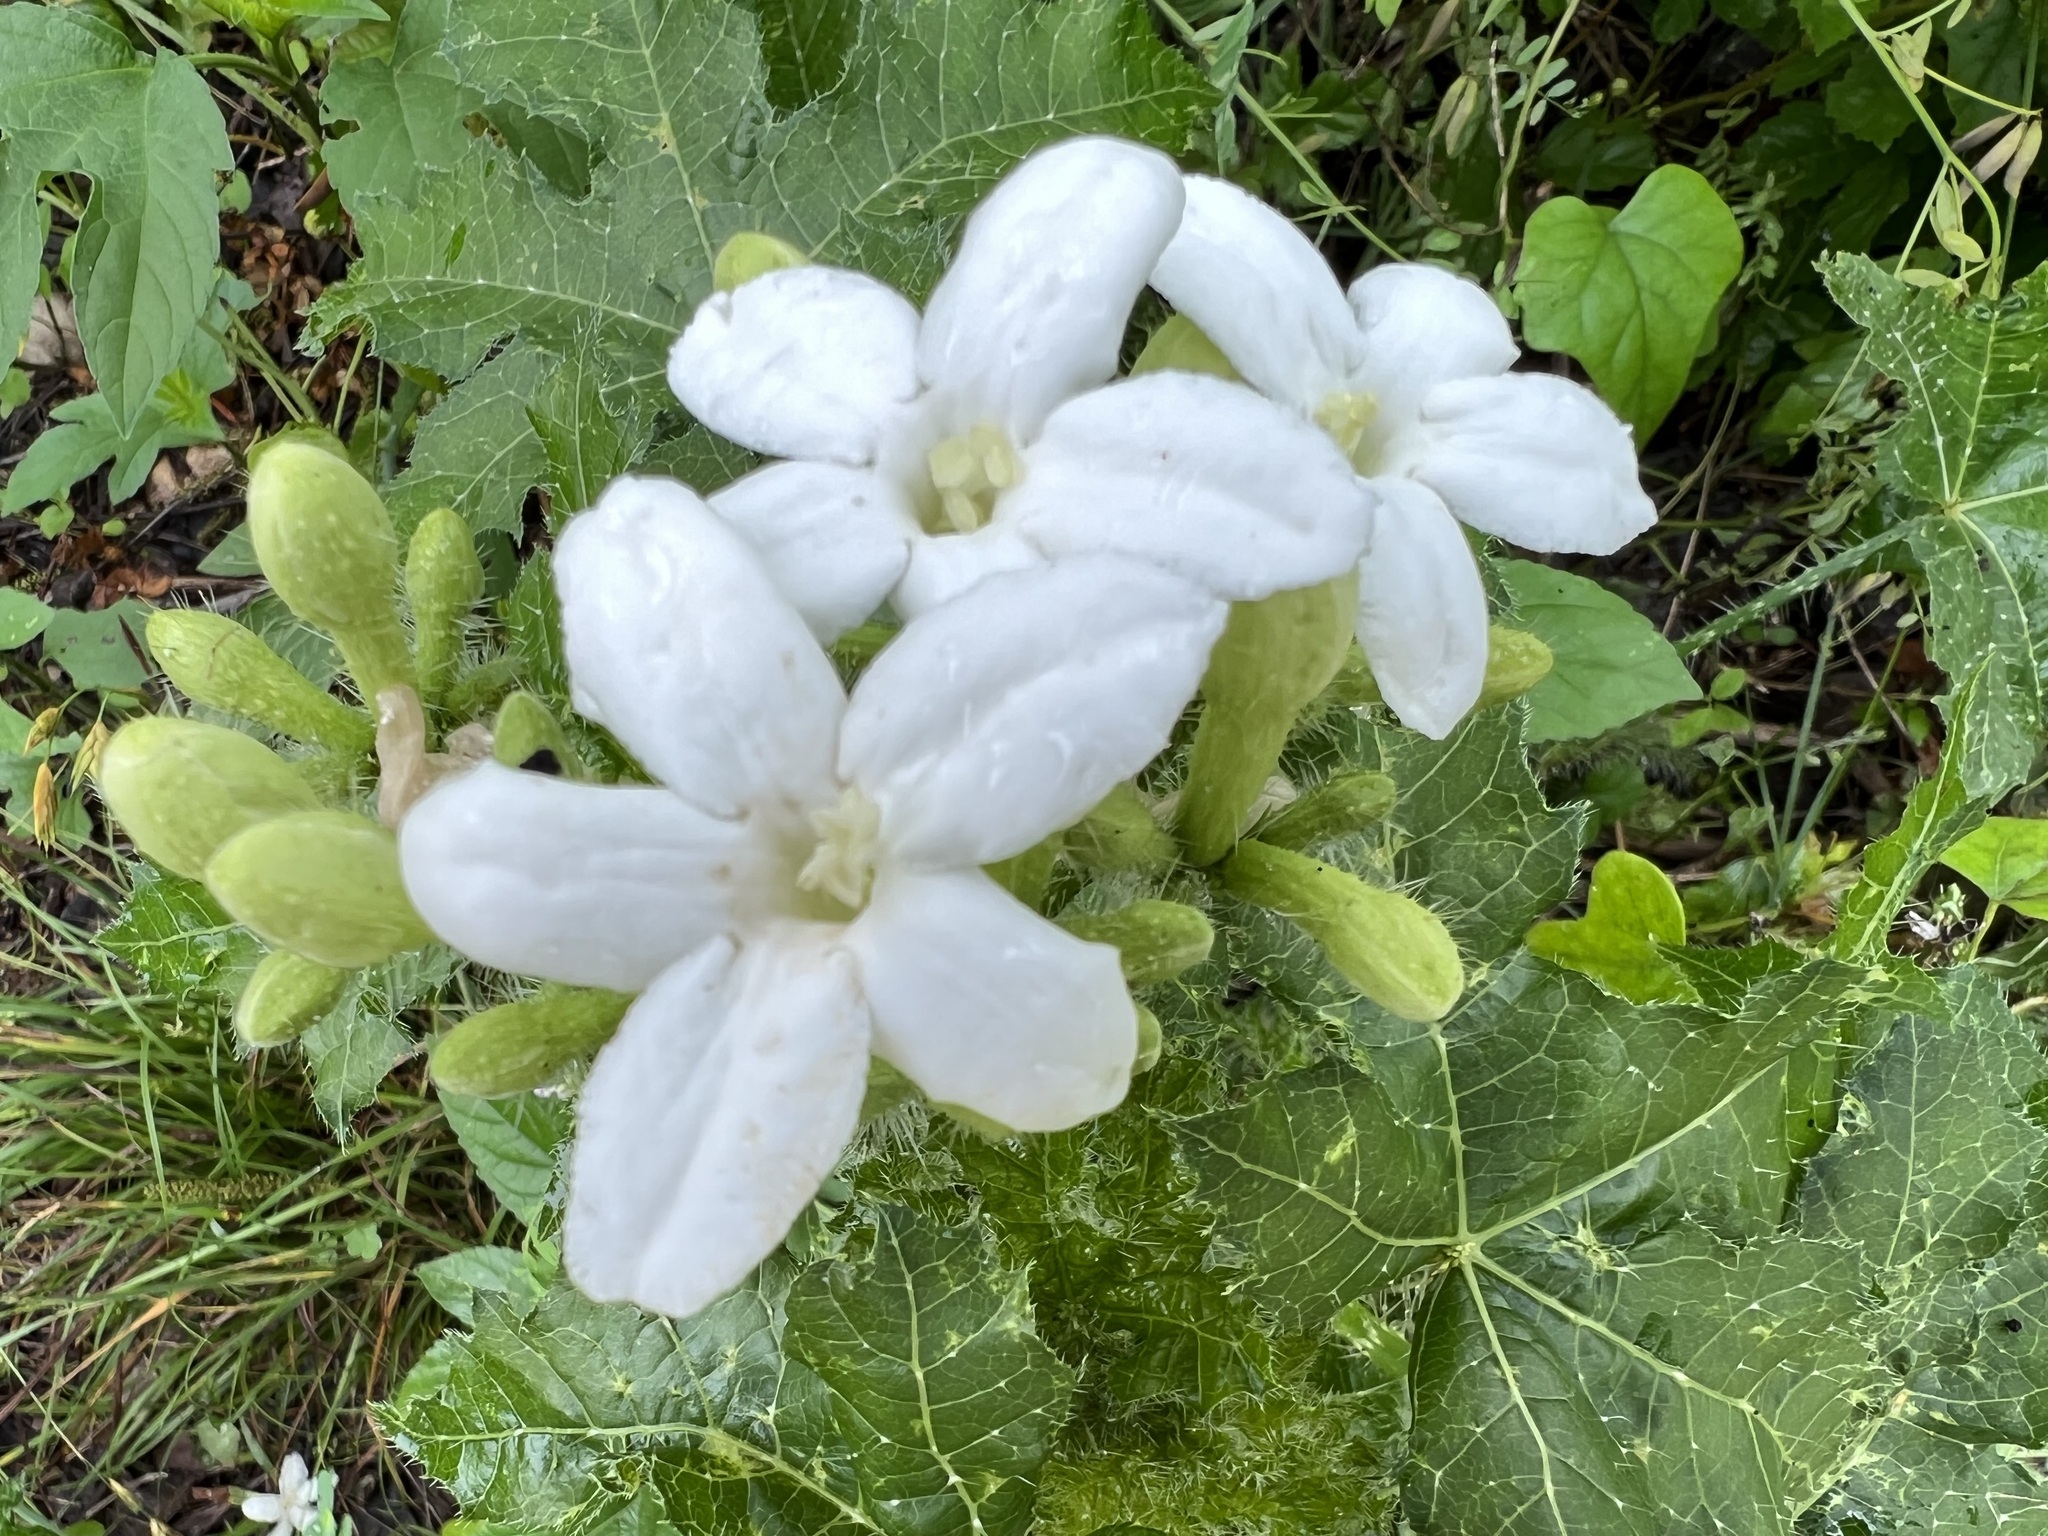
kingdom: Plantae
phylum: Tracheophyta
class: Magnoliopsida
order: Malpighiales
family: Euphorbiaceae
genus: Cnidoscolus
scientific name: Cnidoscolus texanus
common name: Texas bull-nettle
